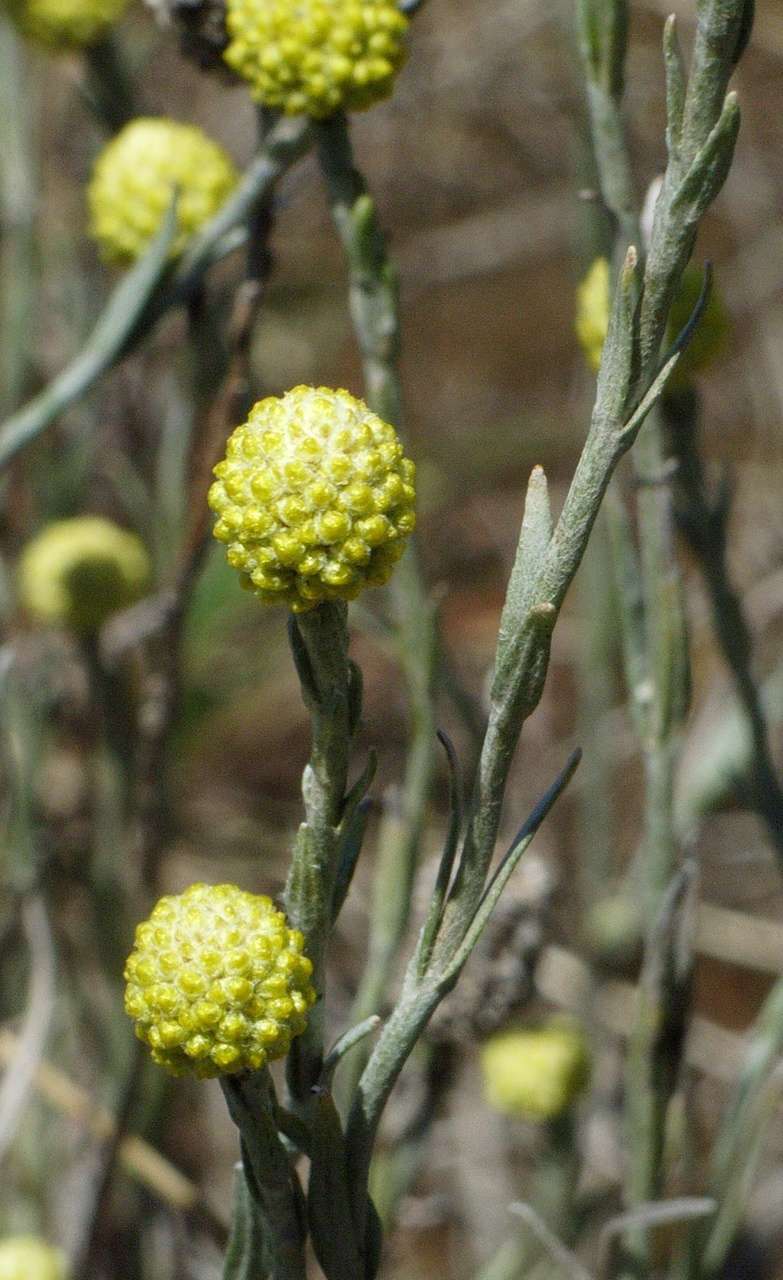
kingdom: Plantae
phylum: Tracheophyta
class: Magnoliopsida
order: Asterales
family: Asteraceae
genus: Calocephalus
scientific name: Calocephalus citreus
